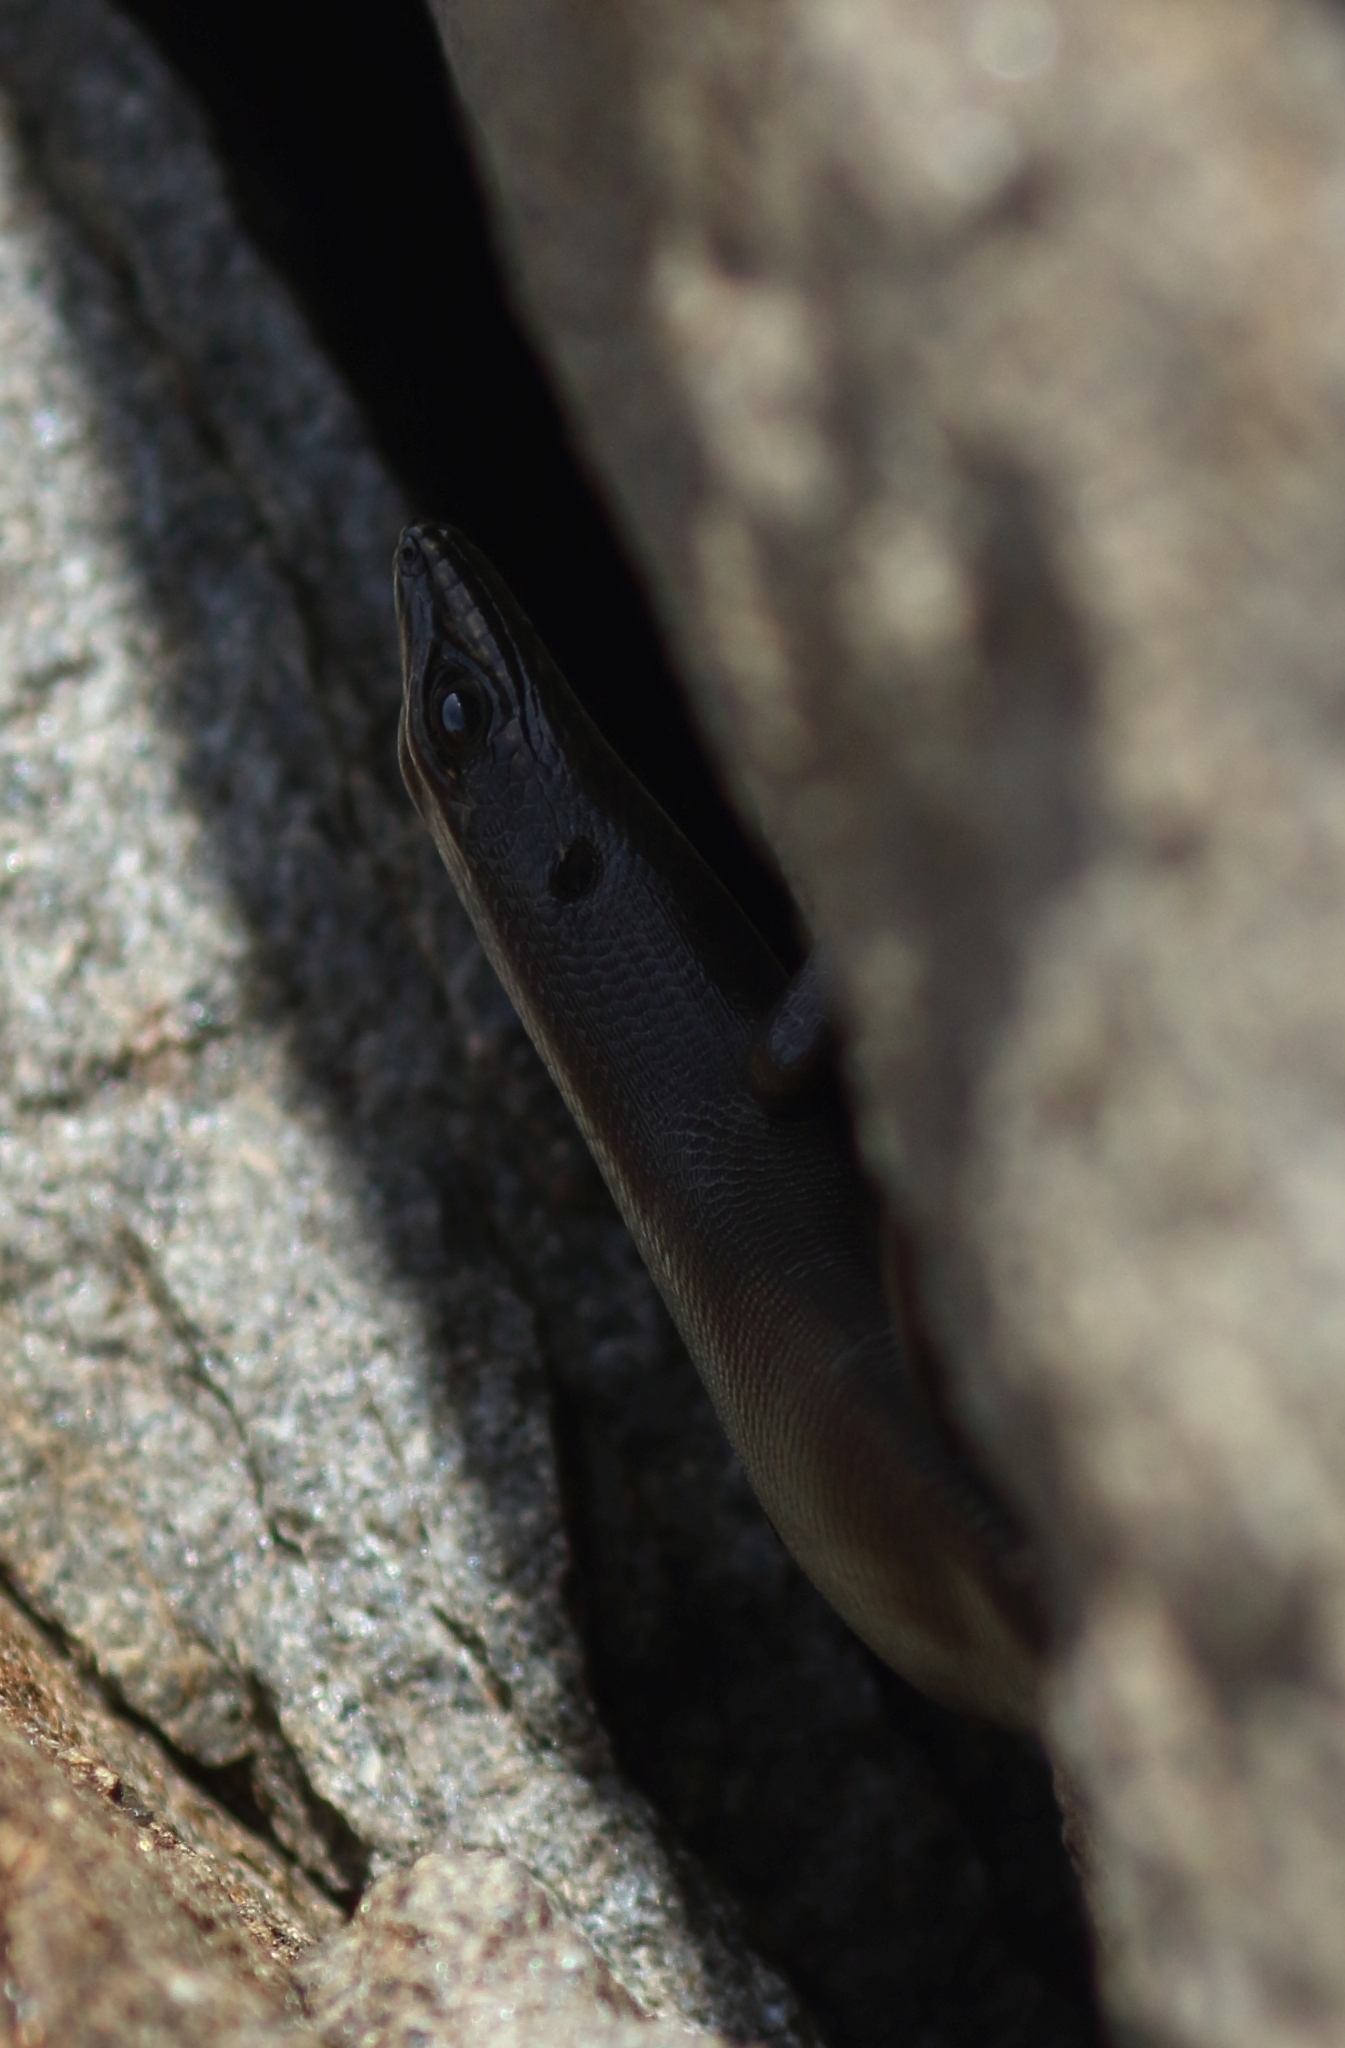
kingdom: Animalia
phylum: Chordata
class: Squamata
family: Scincidae
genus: Trachylepis
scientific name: Trachylepis sulcata
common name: Western rock skink
